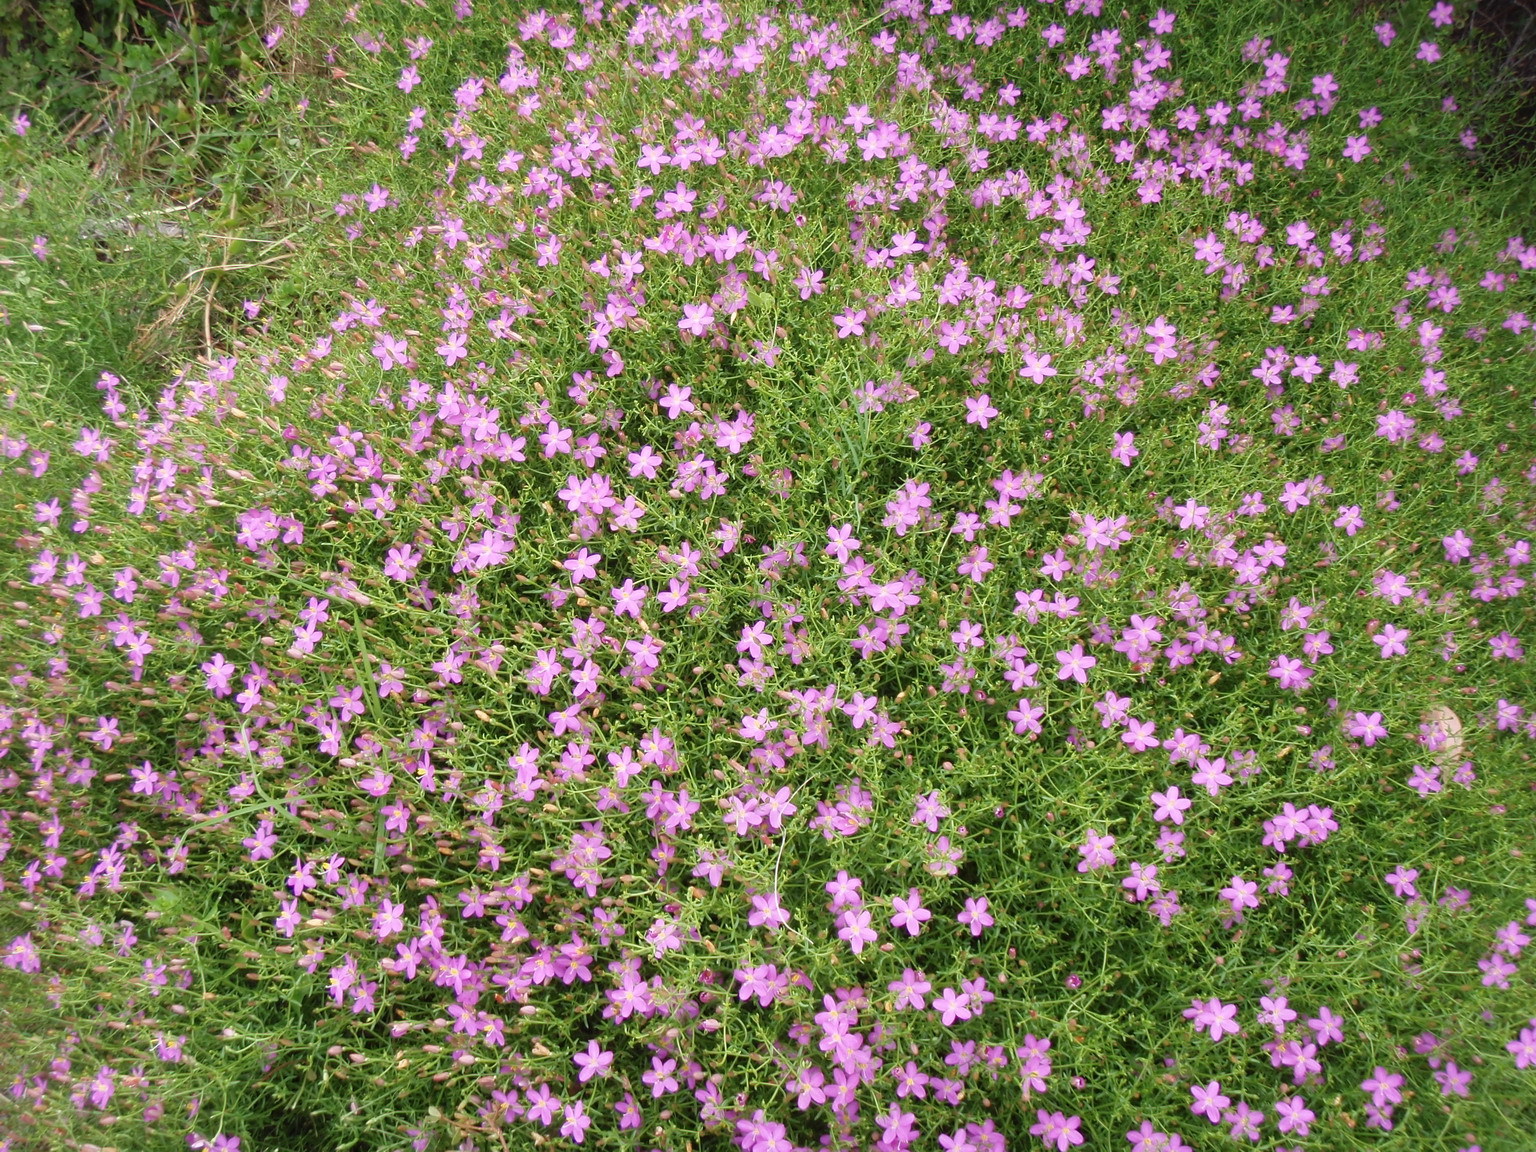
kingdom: Plantae
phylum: Tracheophyta
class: Magnoliopsida
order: Gentianales
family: Gentianaceae
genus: Chironia
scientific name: Chironia baccifera
